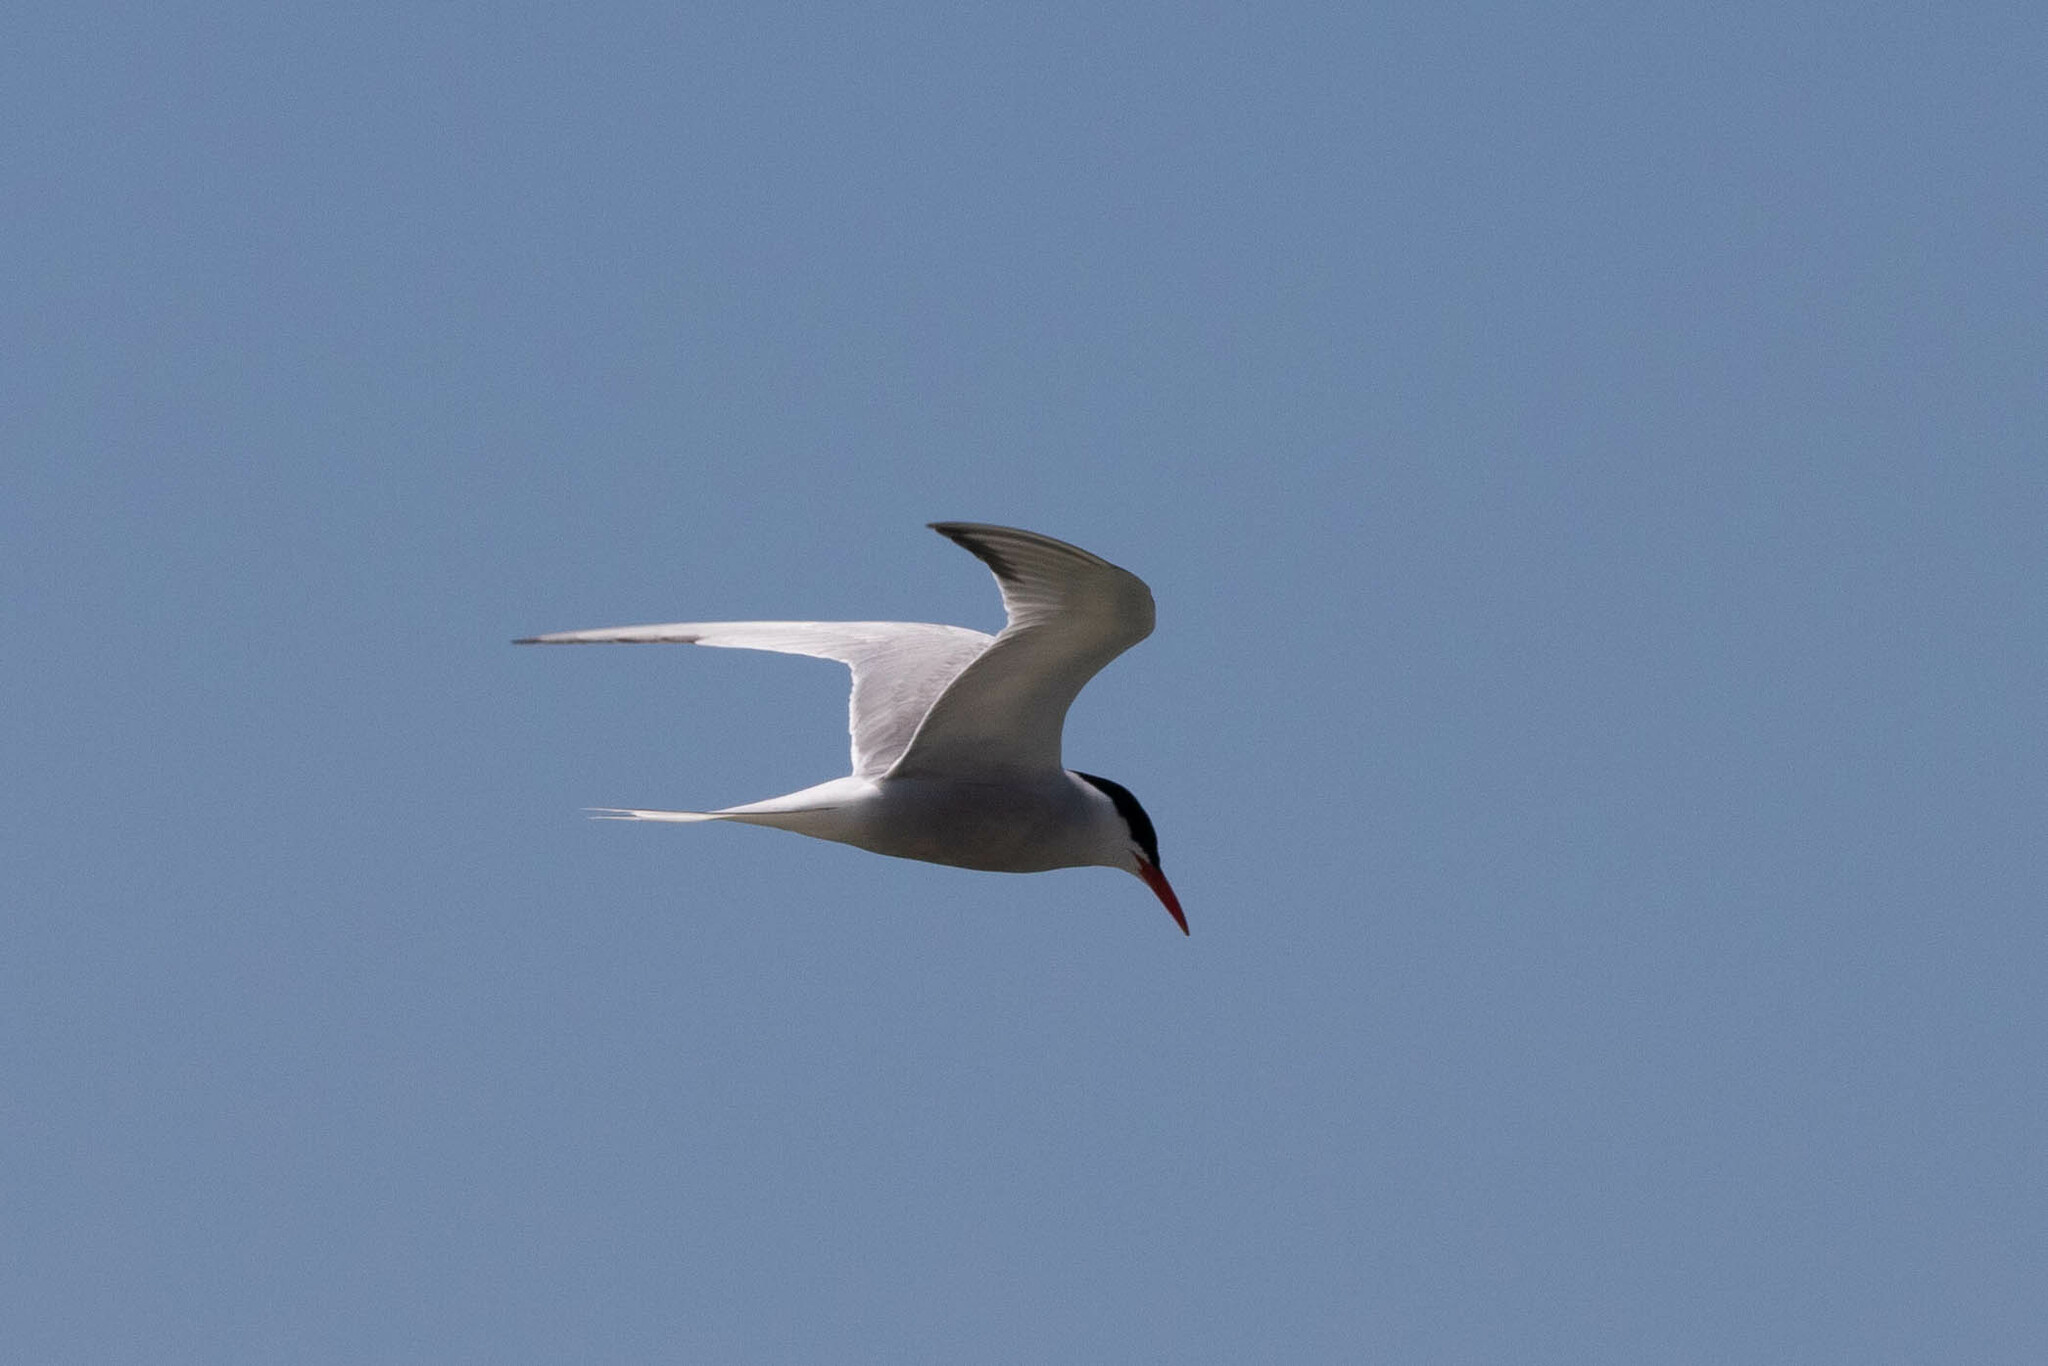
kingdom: Animalia
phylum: Chordata
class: Aves
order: Charadriiformes
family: Laridae
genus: Sterna
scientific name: Sterna hirundo
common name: Common tern
